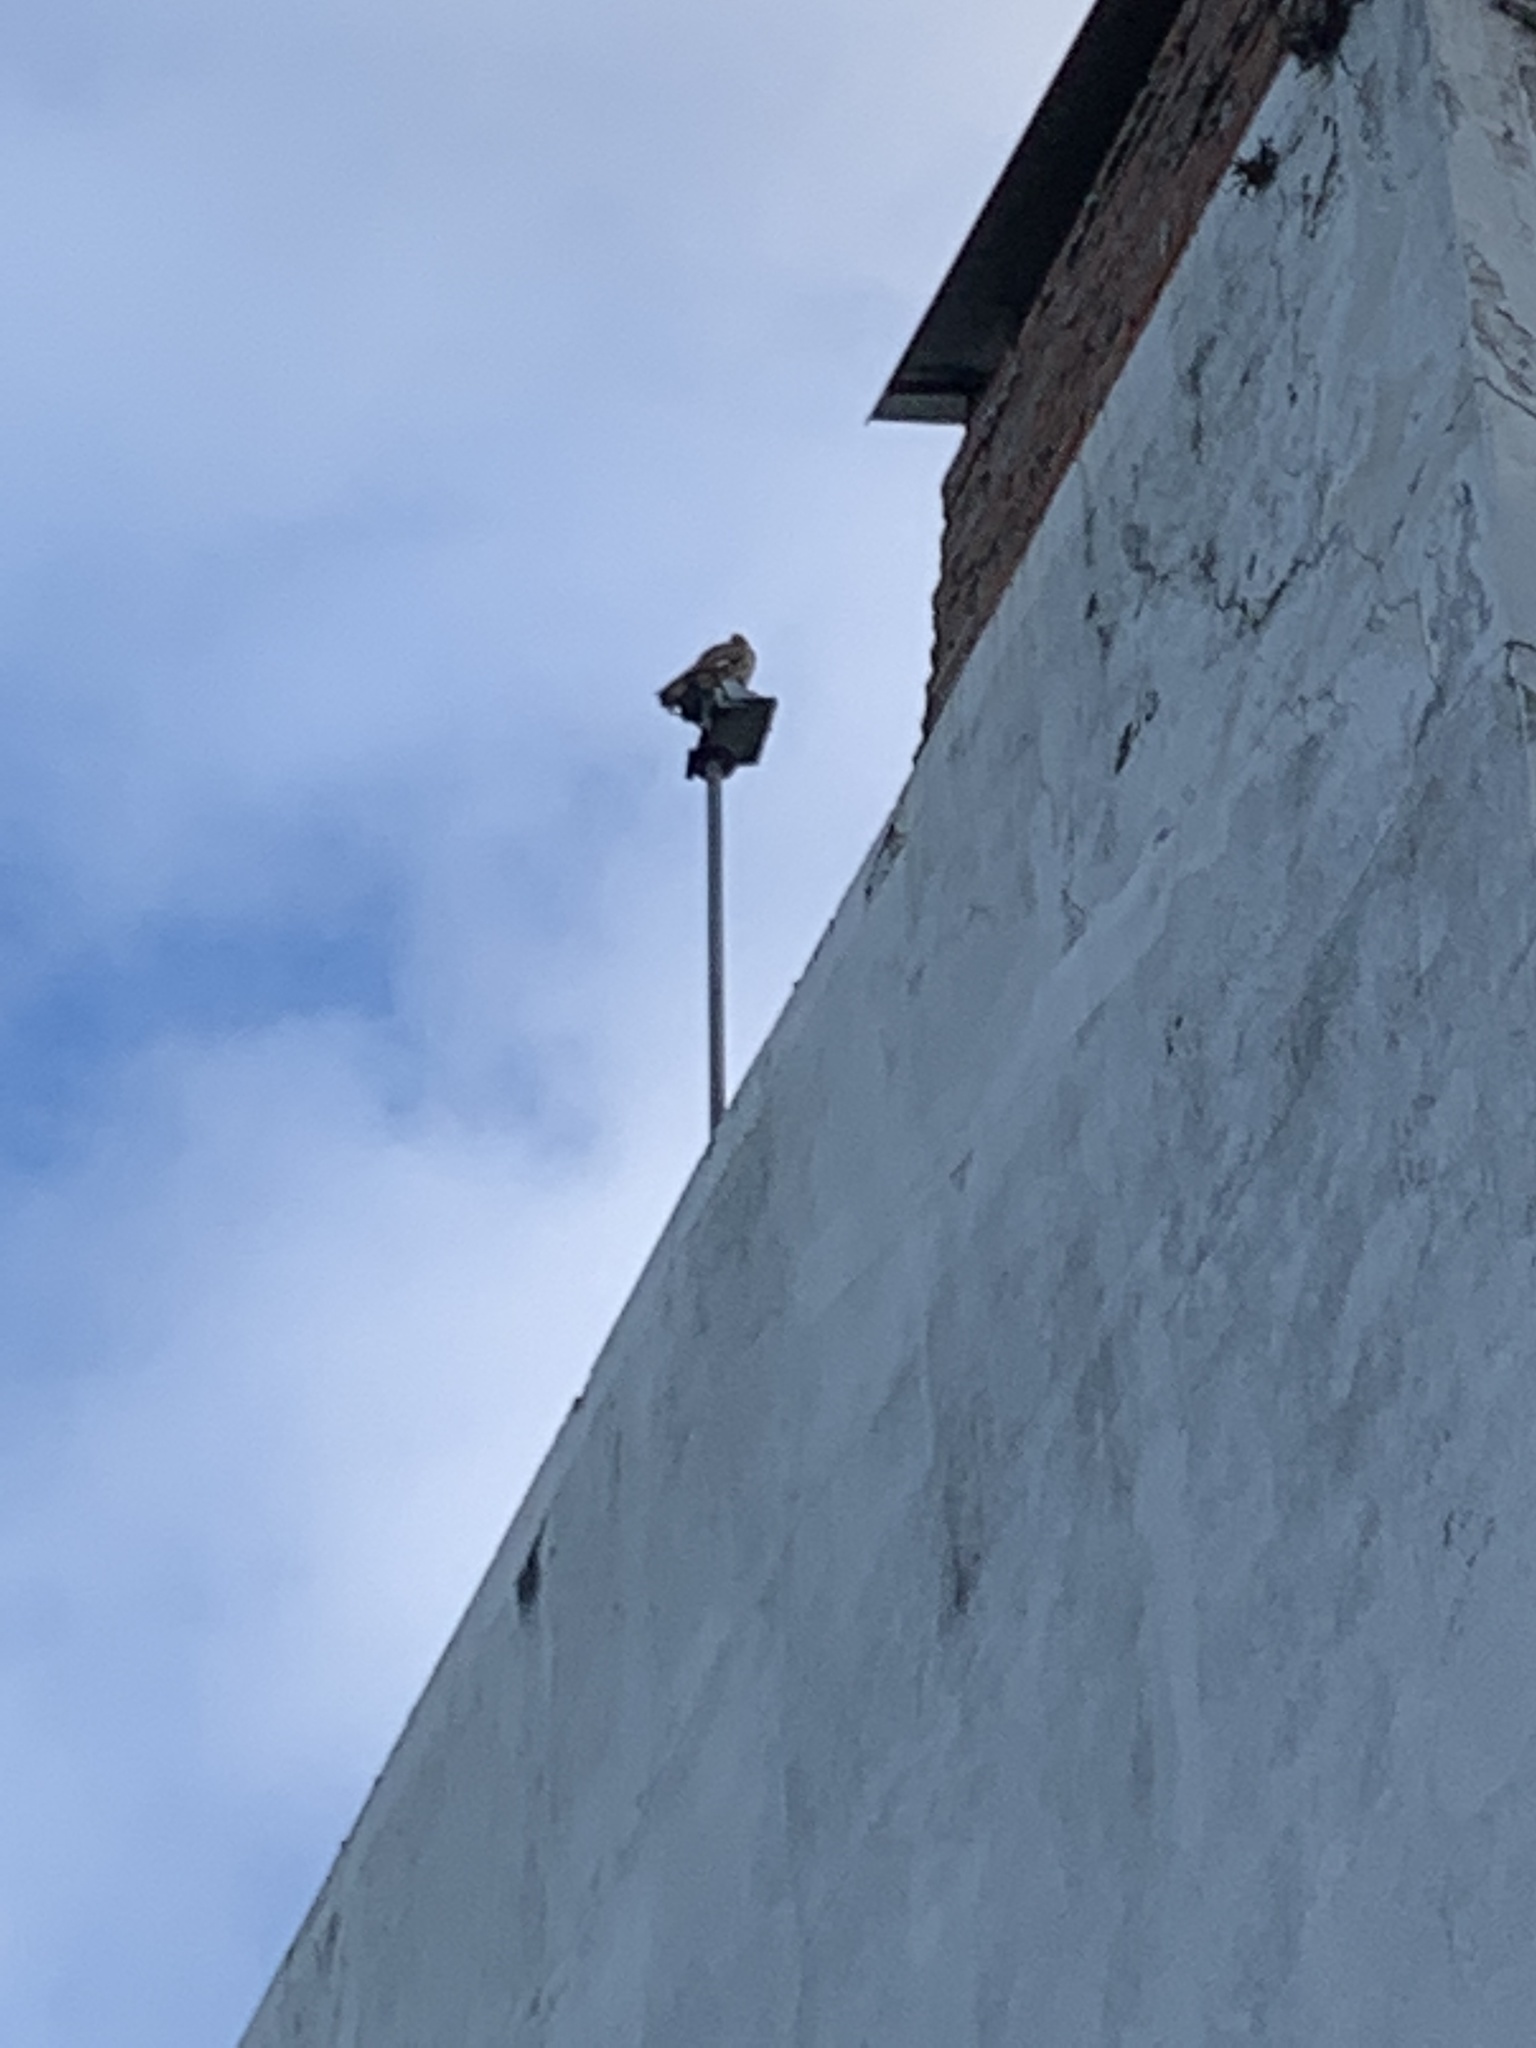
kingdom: Animalia
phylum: Chordata
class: Aves
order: Falconiformes
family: Falconidae
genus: Daptrius
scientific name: Daptrius
